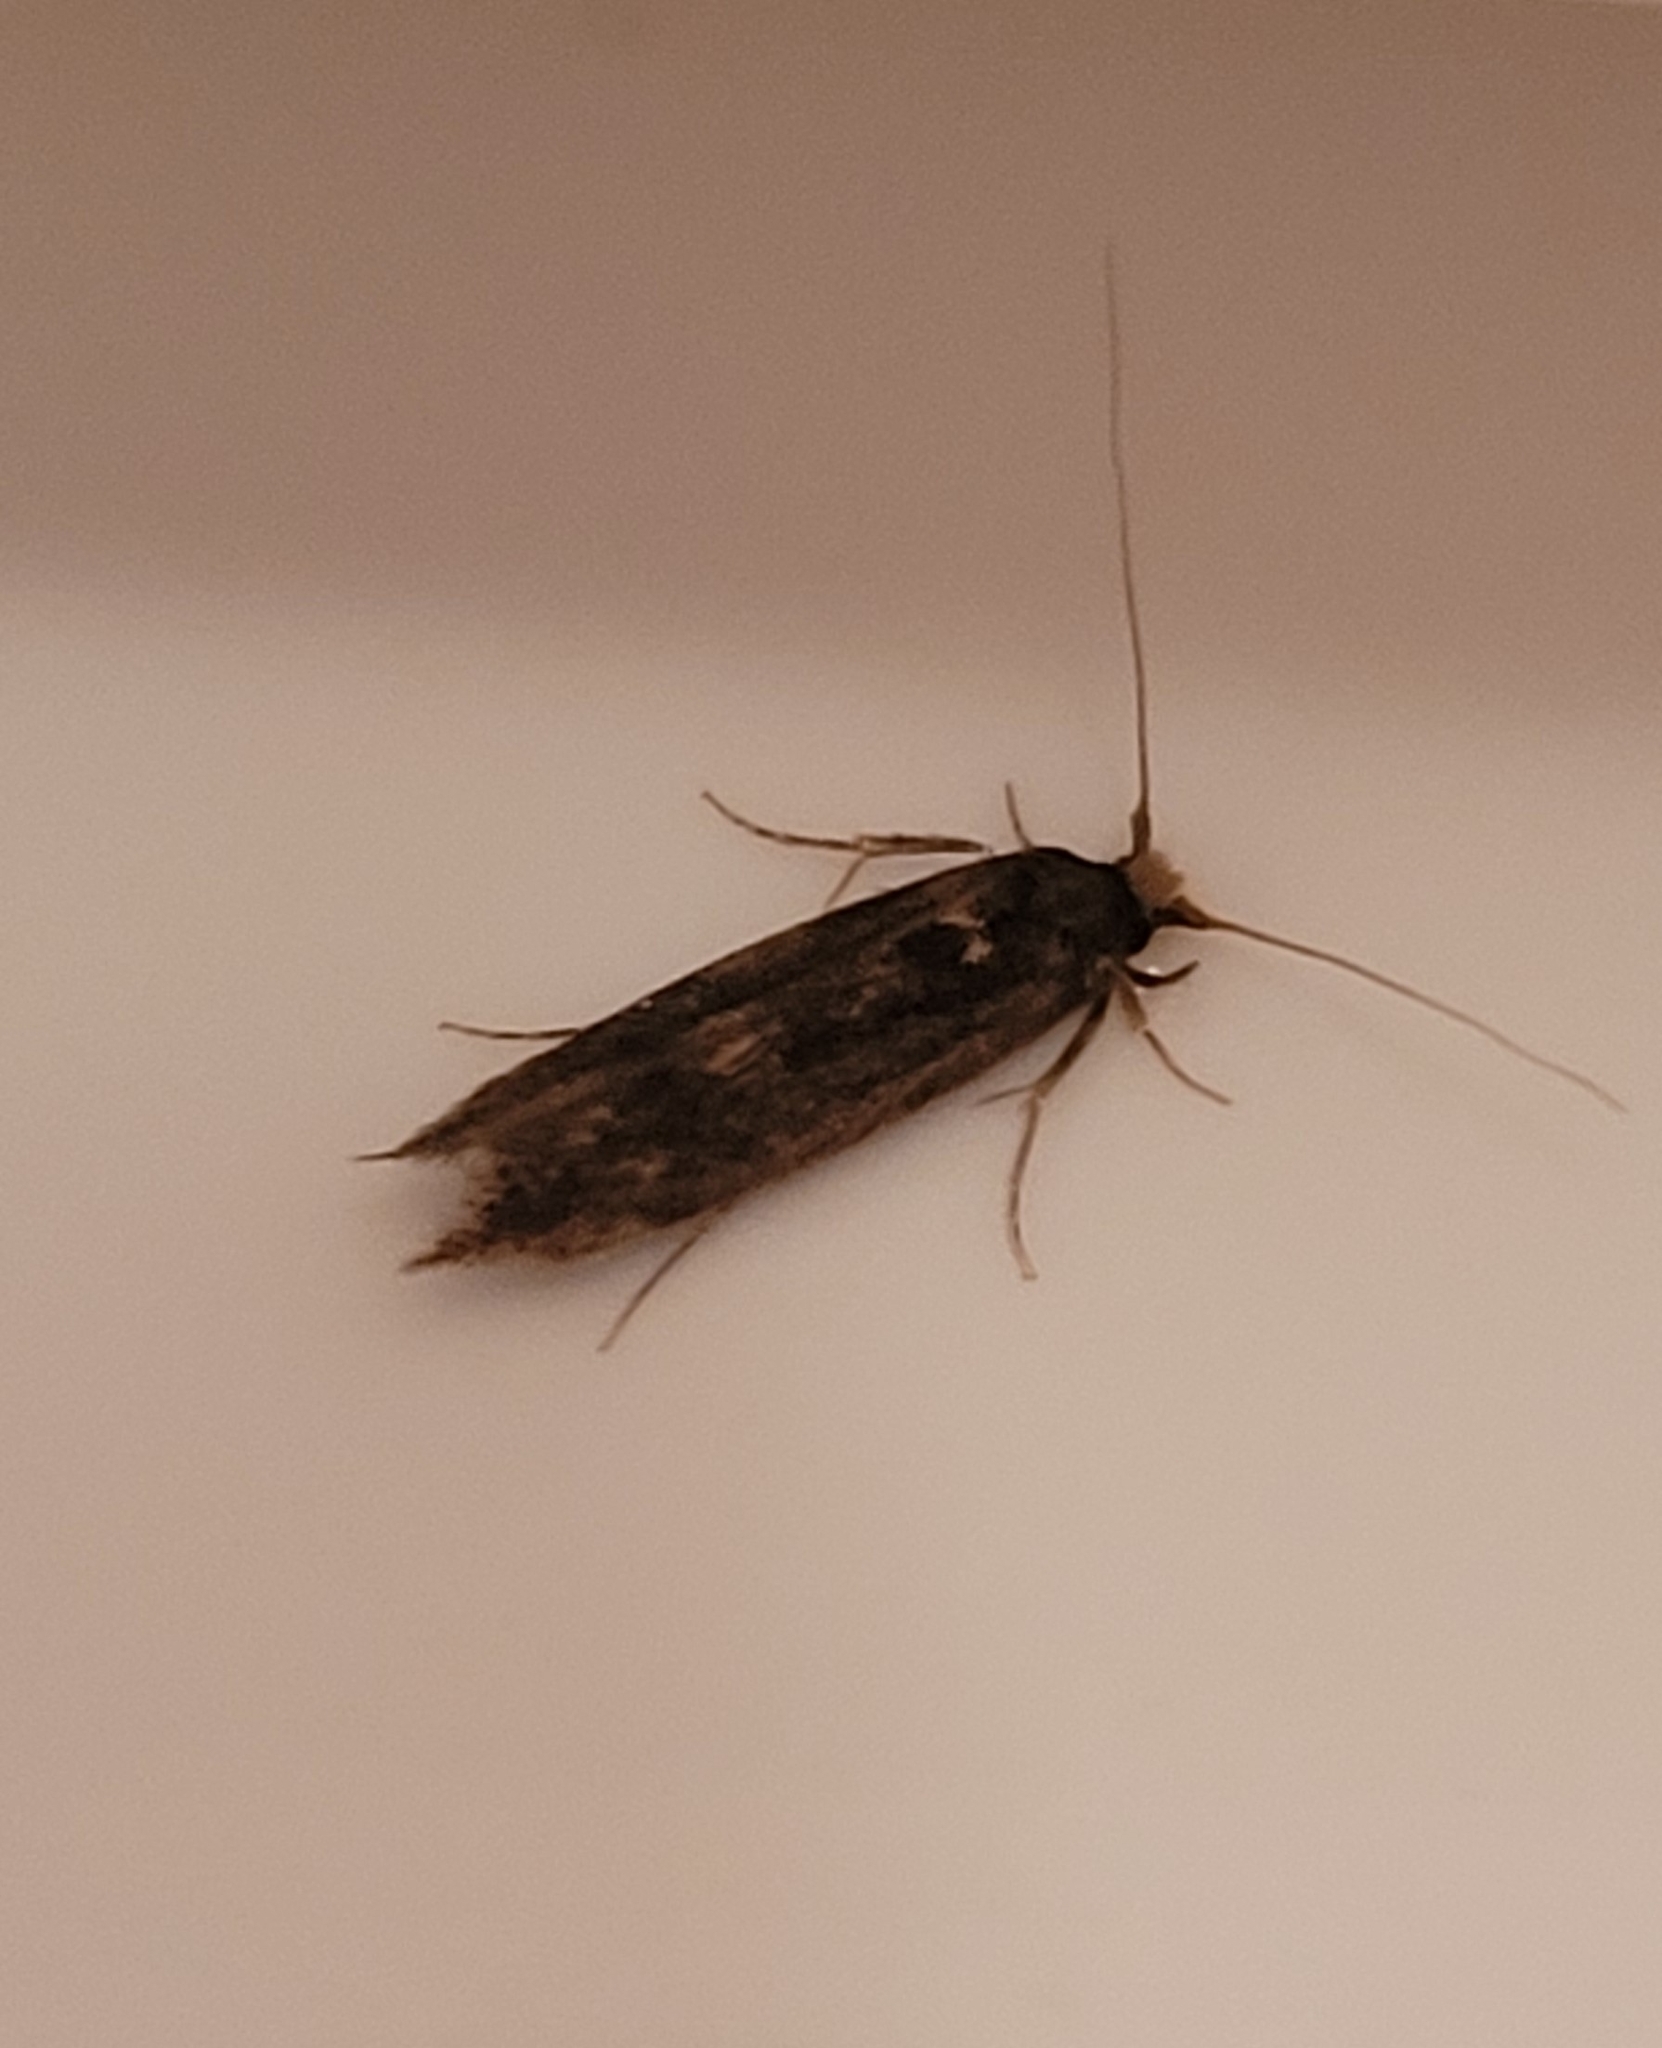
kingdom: Animalia
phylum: Arthropoda
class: Insecta
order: Lepidoptera
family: Tineidae
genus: Opogona
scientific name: Opogona omoscopa
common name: Moth
